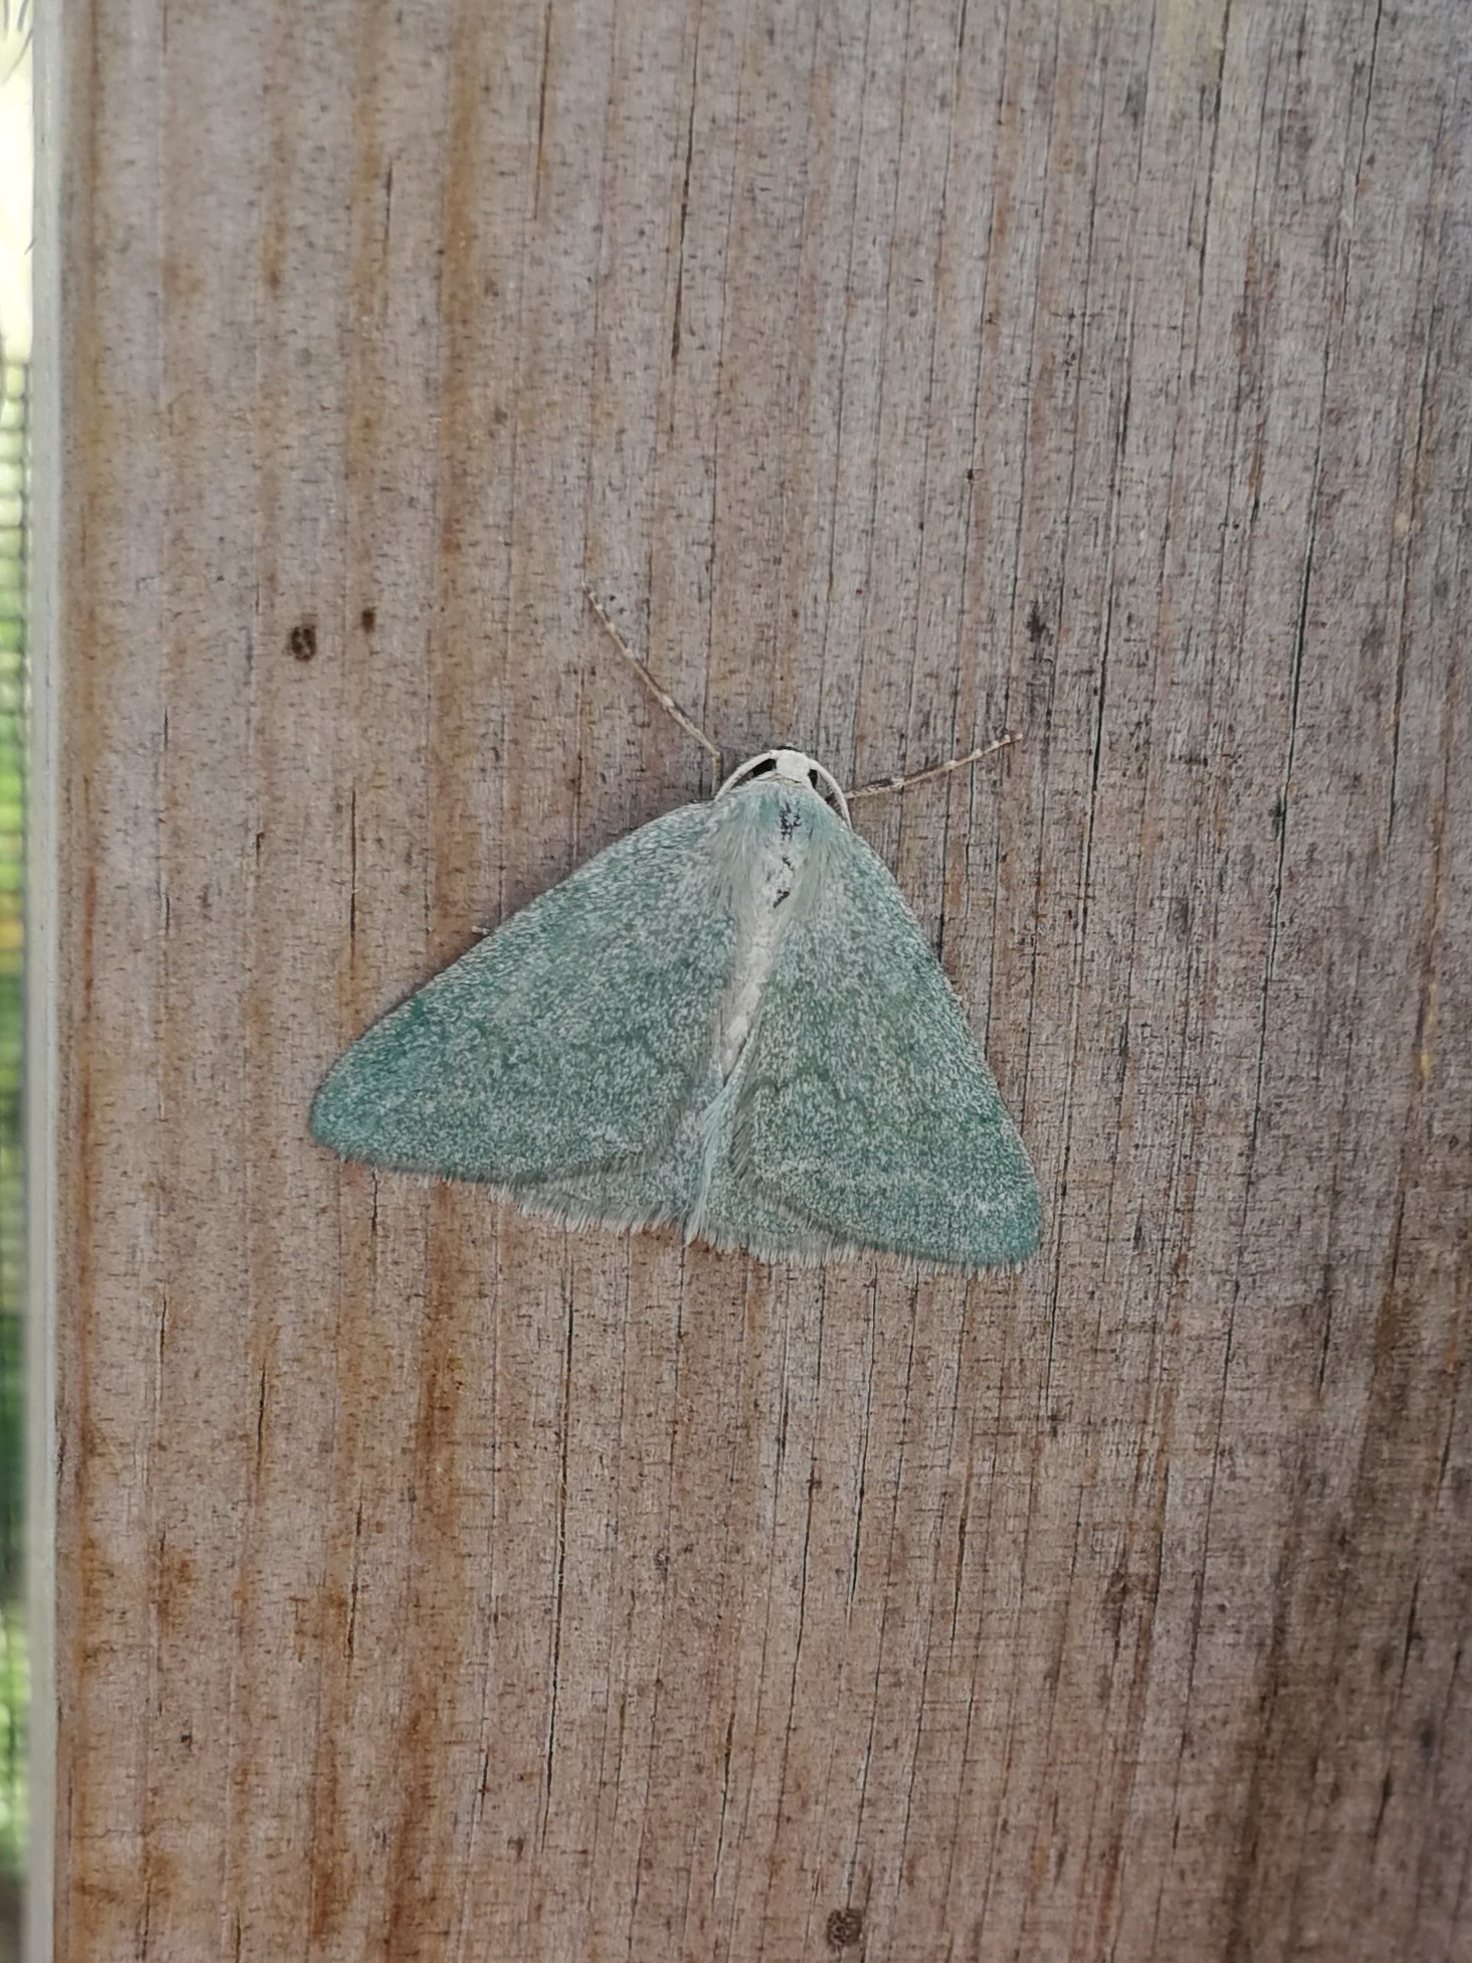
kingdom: Animalia
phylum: Arthropoda
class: Insecta
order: Lepidoptera
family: Geometridae
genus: Pseudoterpna
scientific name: Pseudoterpna pruinata
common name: Grass emerald
